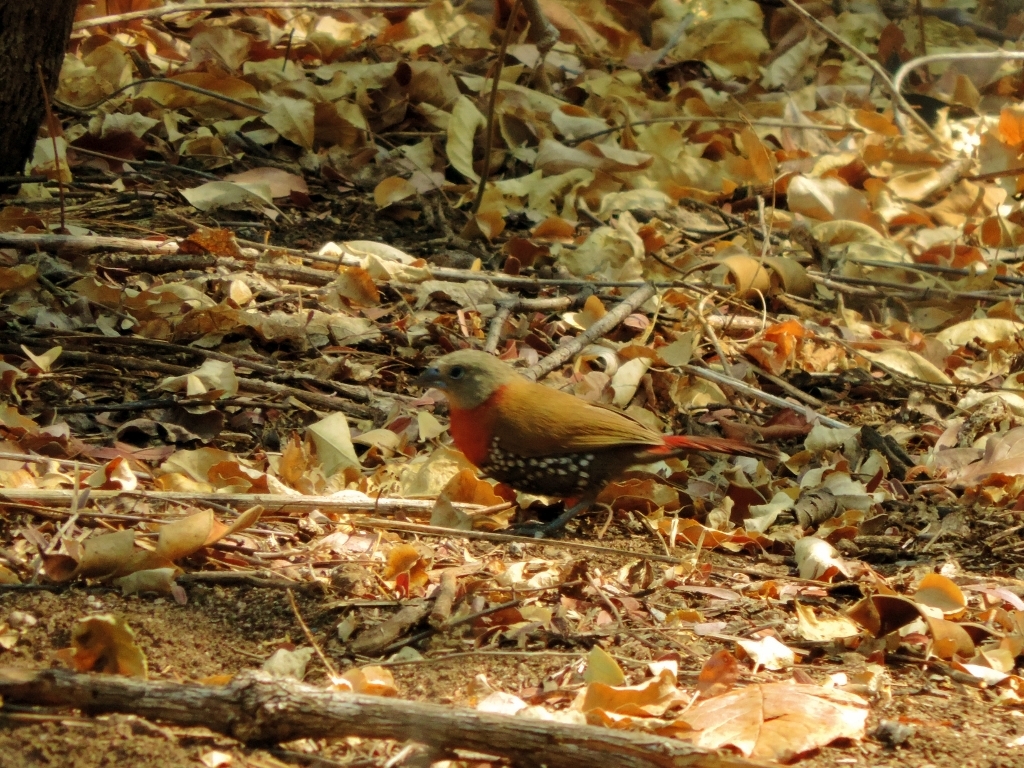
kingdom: Animalia
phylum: Chordata
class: Aves
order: Passeriformes
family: Estrildidae
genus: Hypargos
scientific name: Hypargos niveoguttatus
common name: Red-throated twinspot
